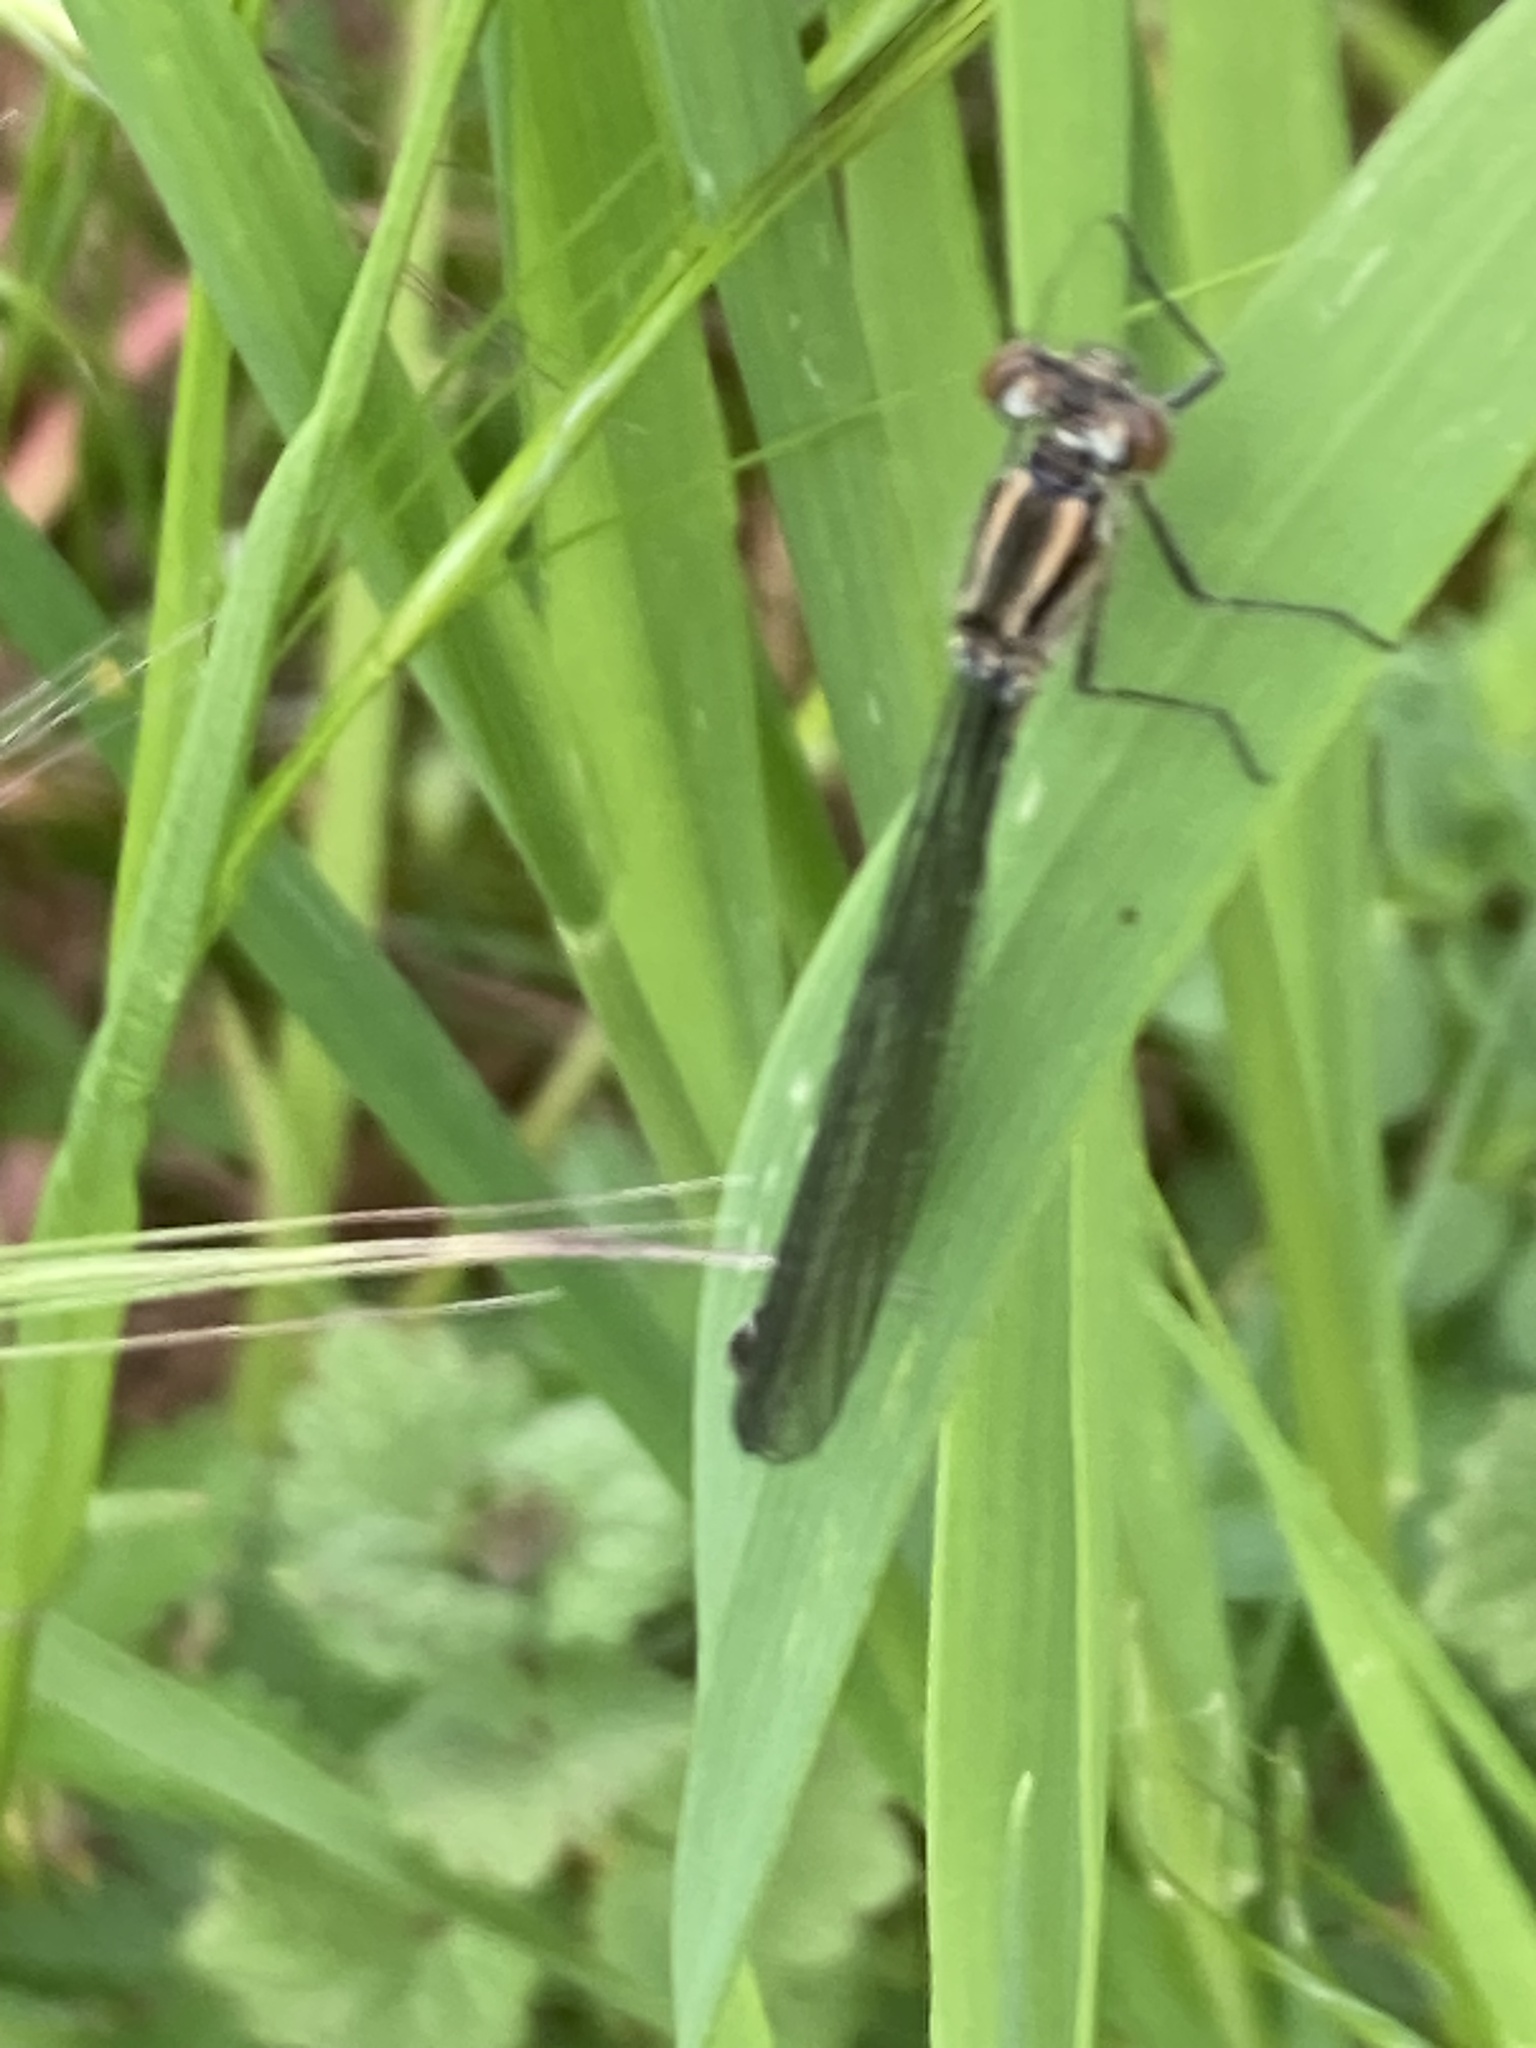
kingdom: Animalia
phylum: Arthropoda
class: Insecta
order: Odonata
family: Coenagrionidae
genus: Coenagrion
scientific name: Coenagrion puella
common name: Azure damselfly
